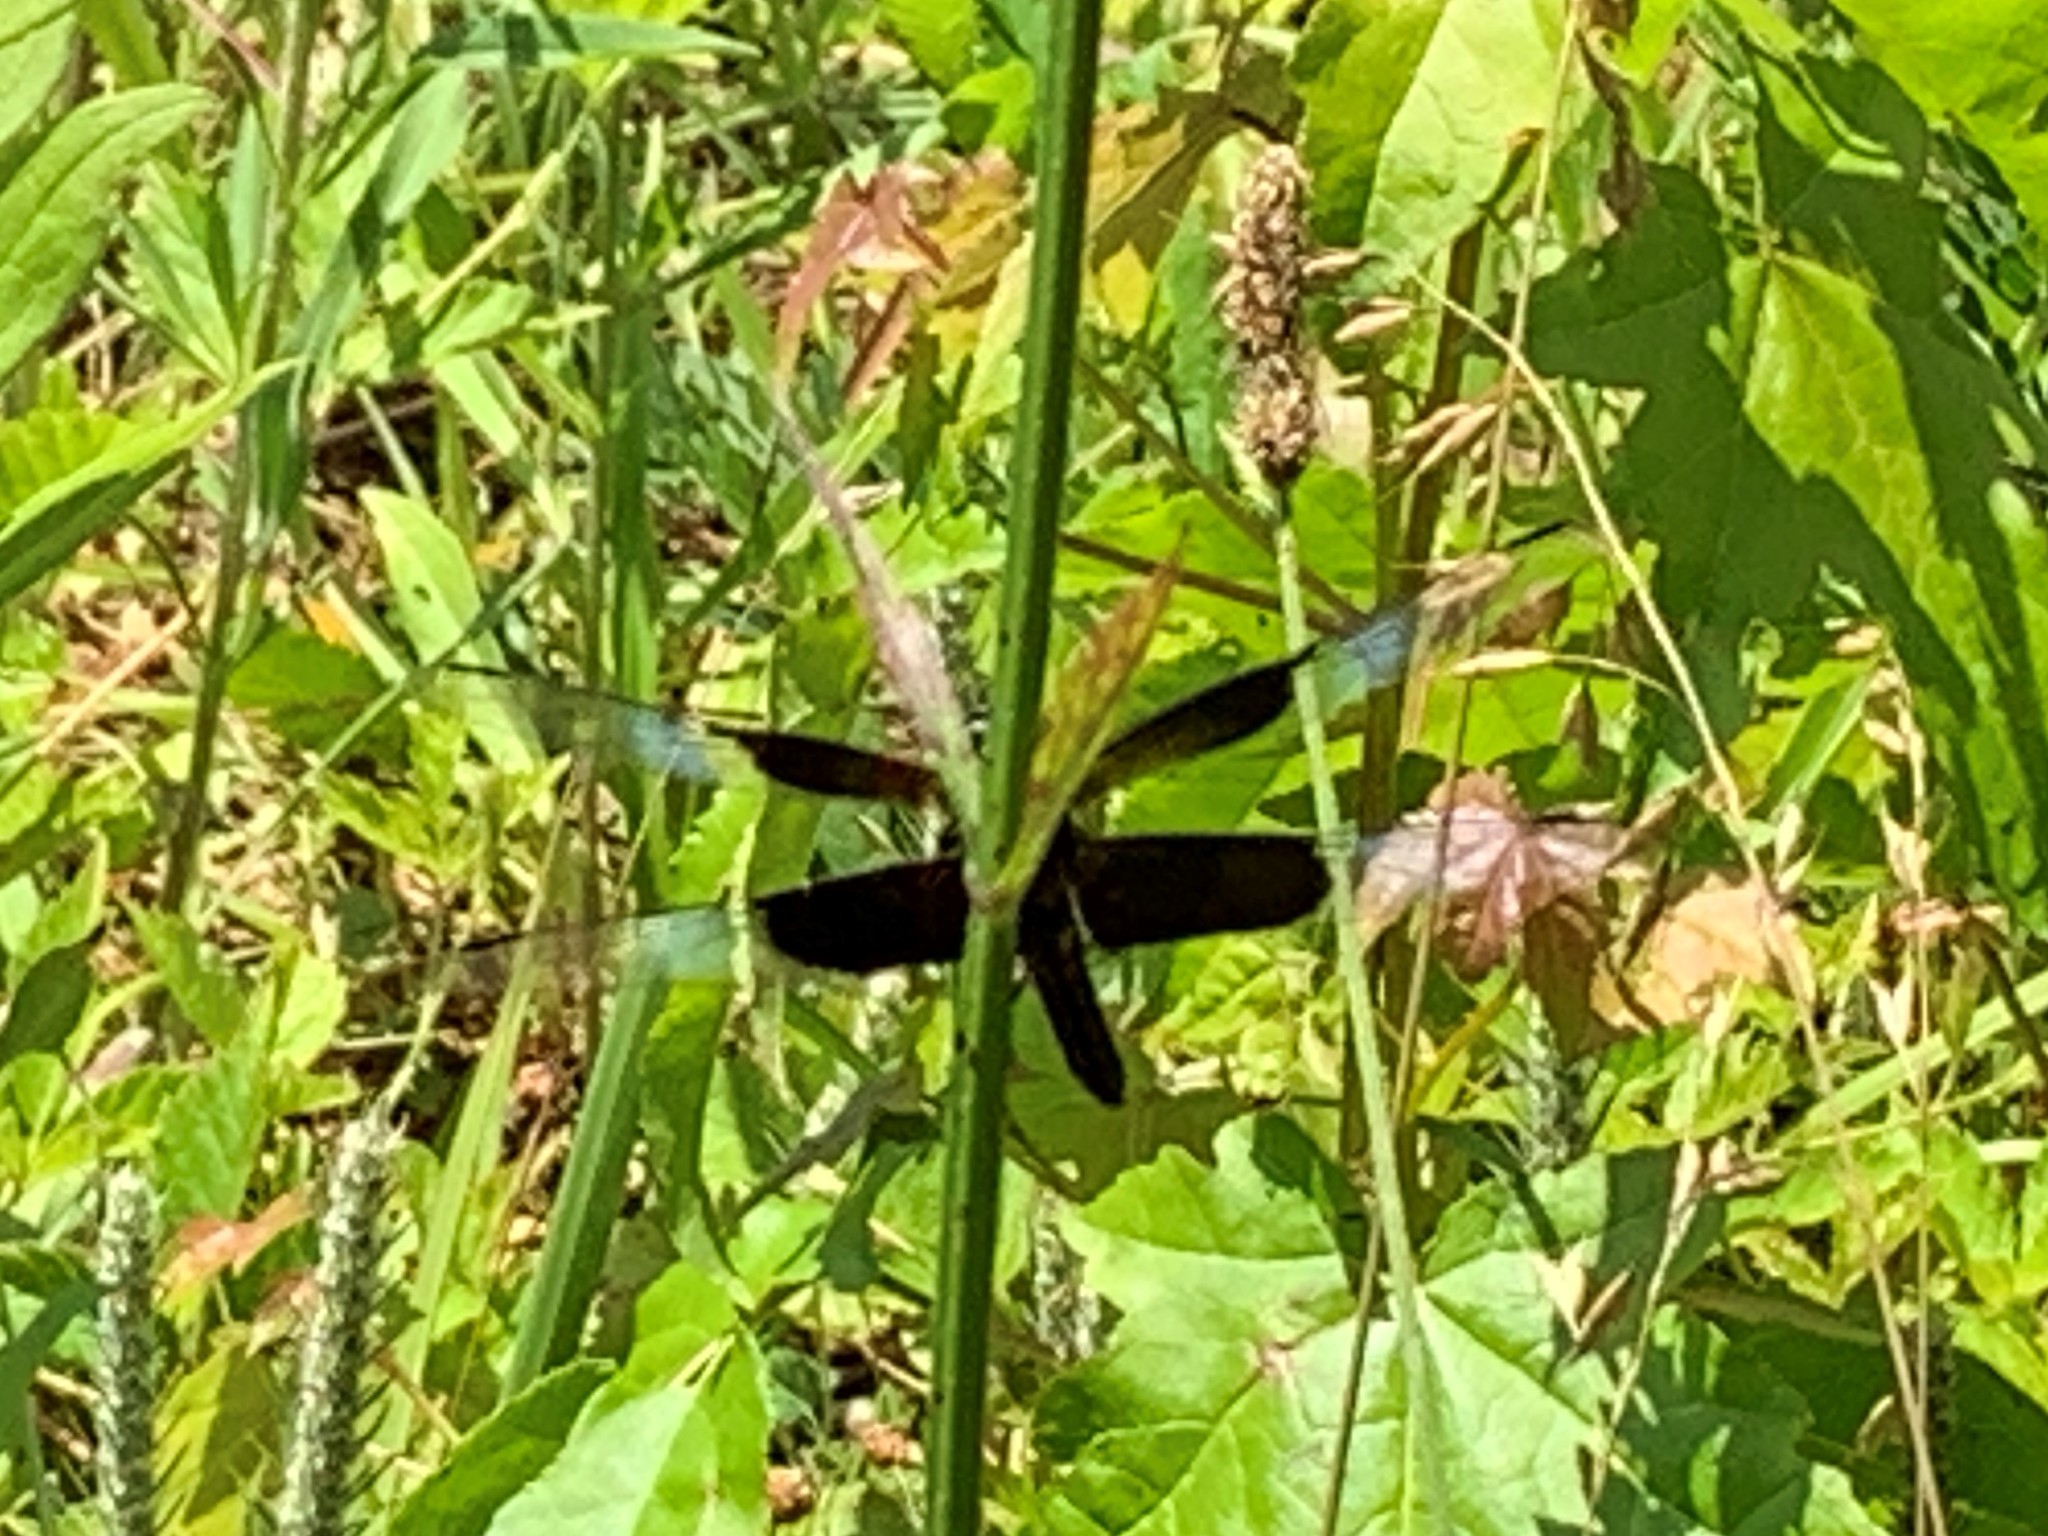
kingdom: Animalia
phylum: Arthropoda
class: Insecta
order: Odonata
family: Libellulidae
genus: Libellula
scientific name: Libellula luctuosa
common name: Widow skimmer
